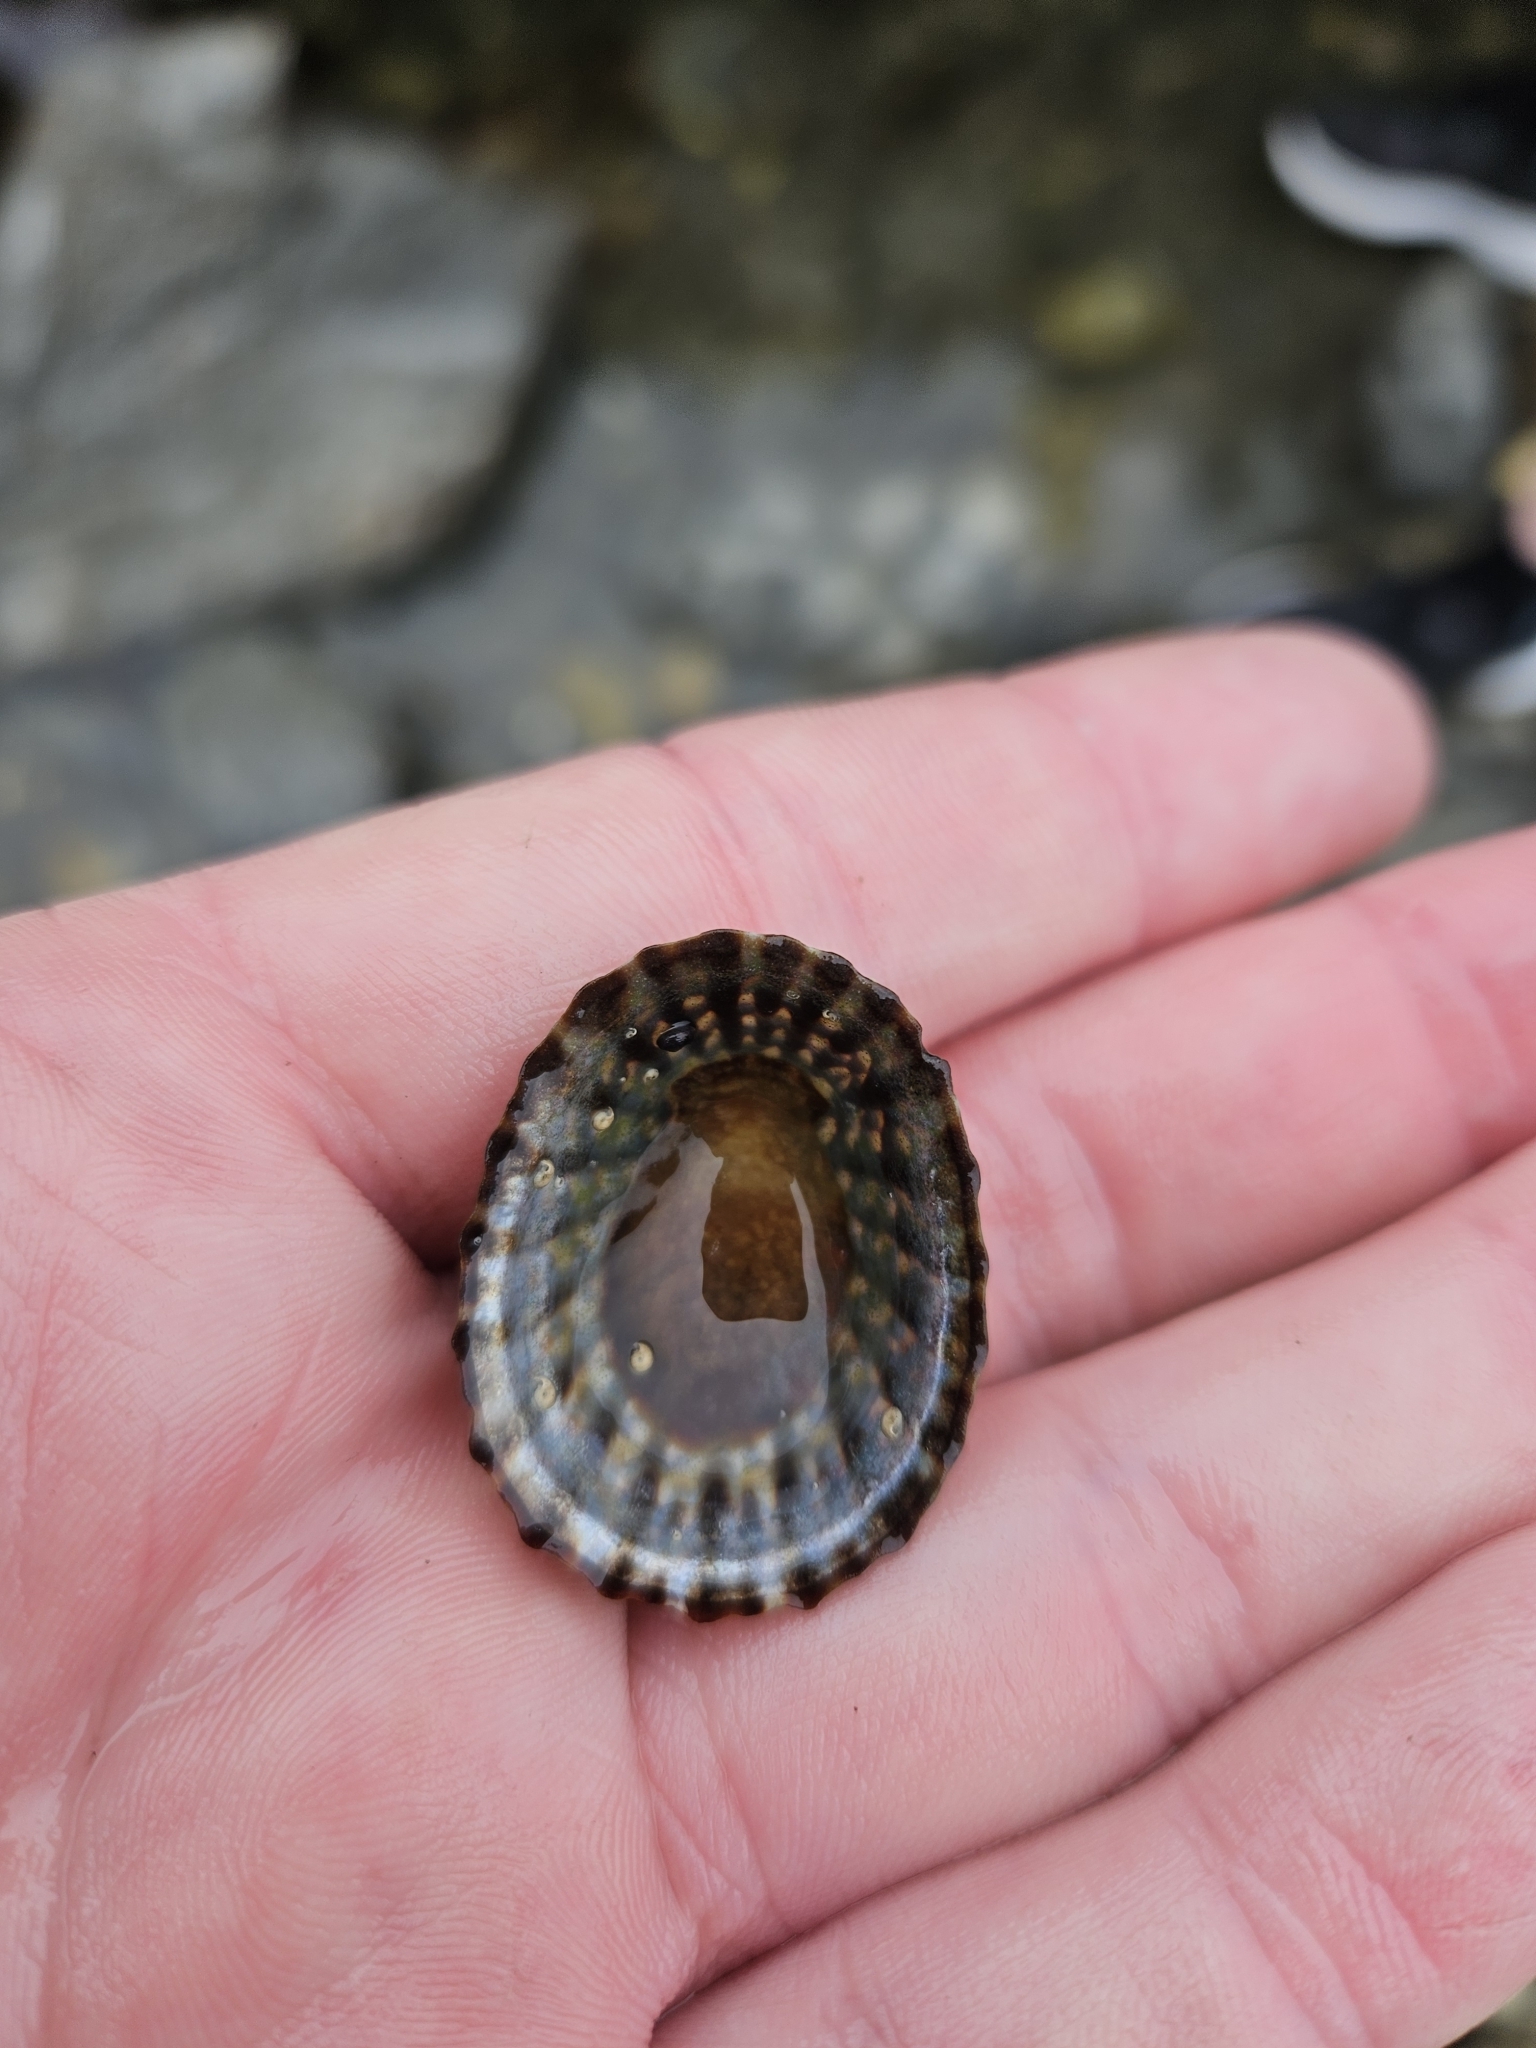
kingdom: Animalia
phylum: Mollusca
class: Gastropoda
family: Nacellidae
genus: Cellana
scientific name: Cellana denticulata
